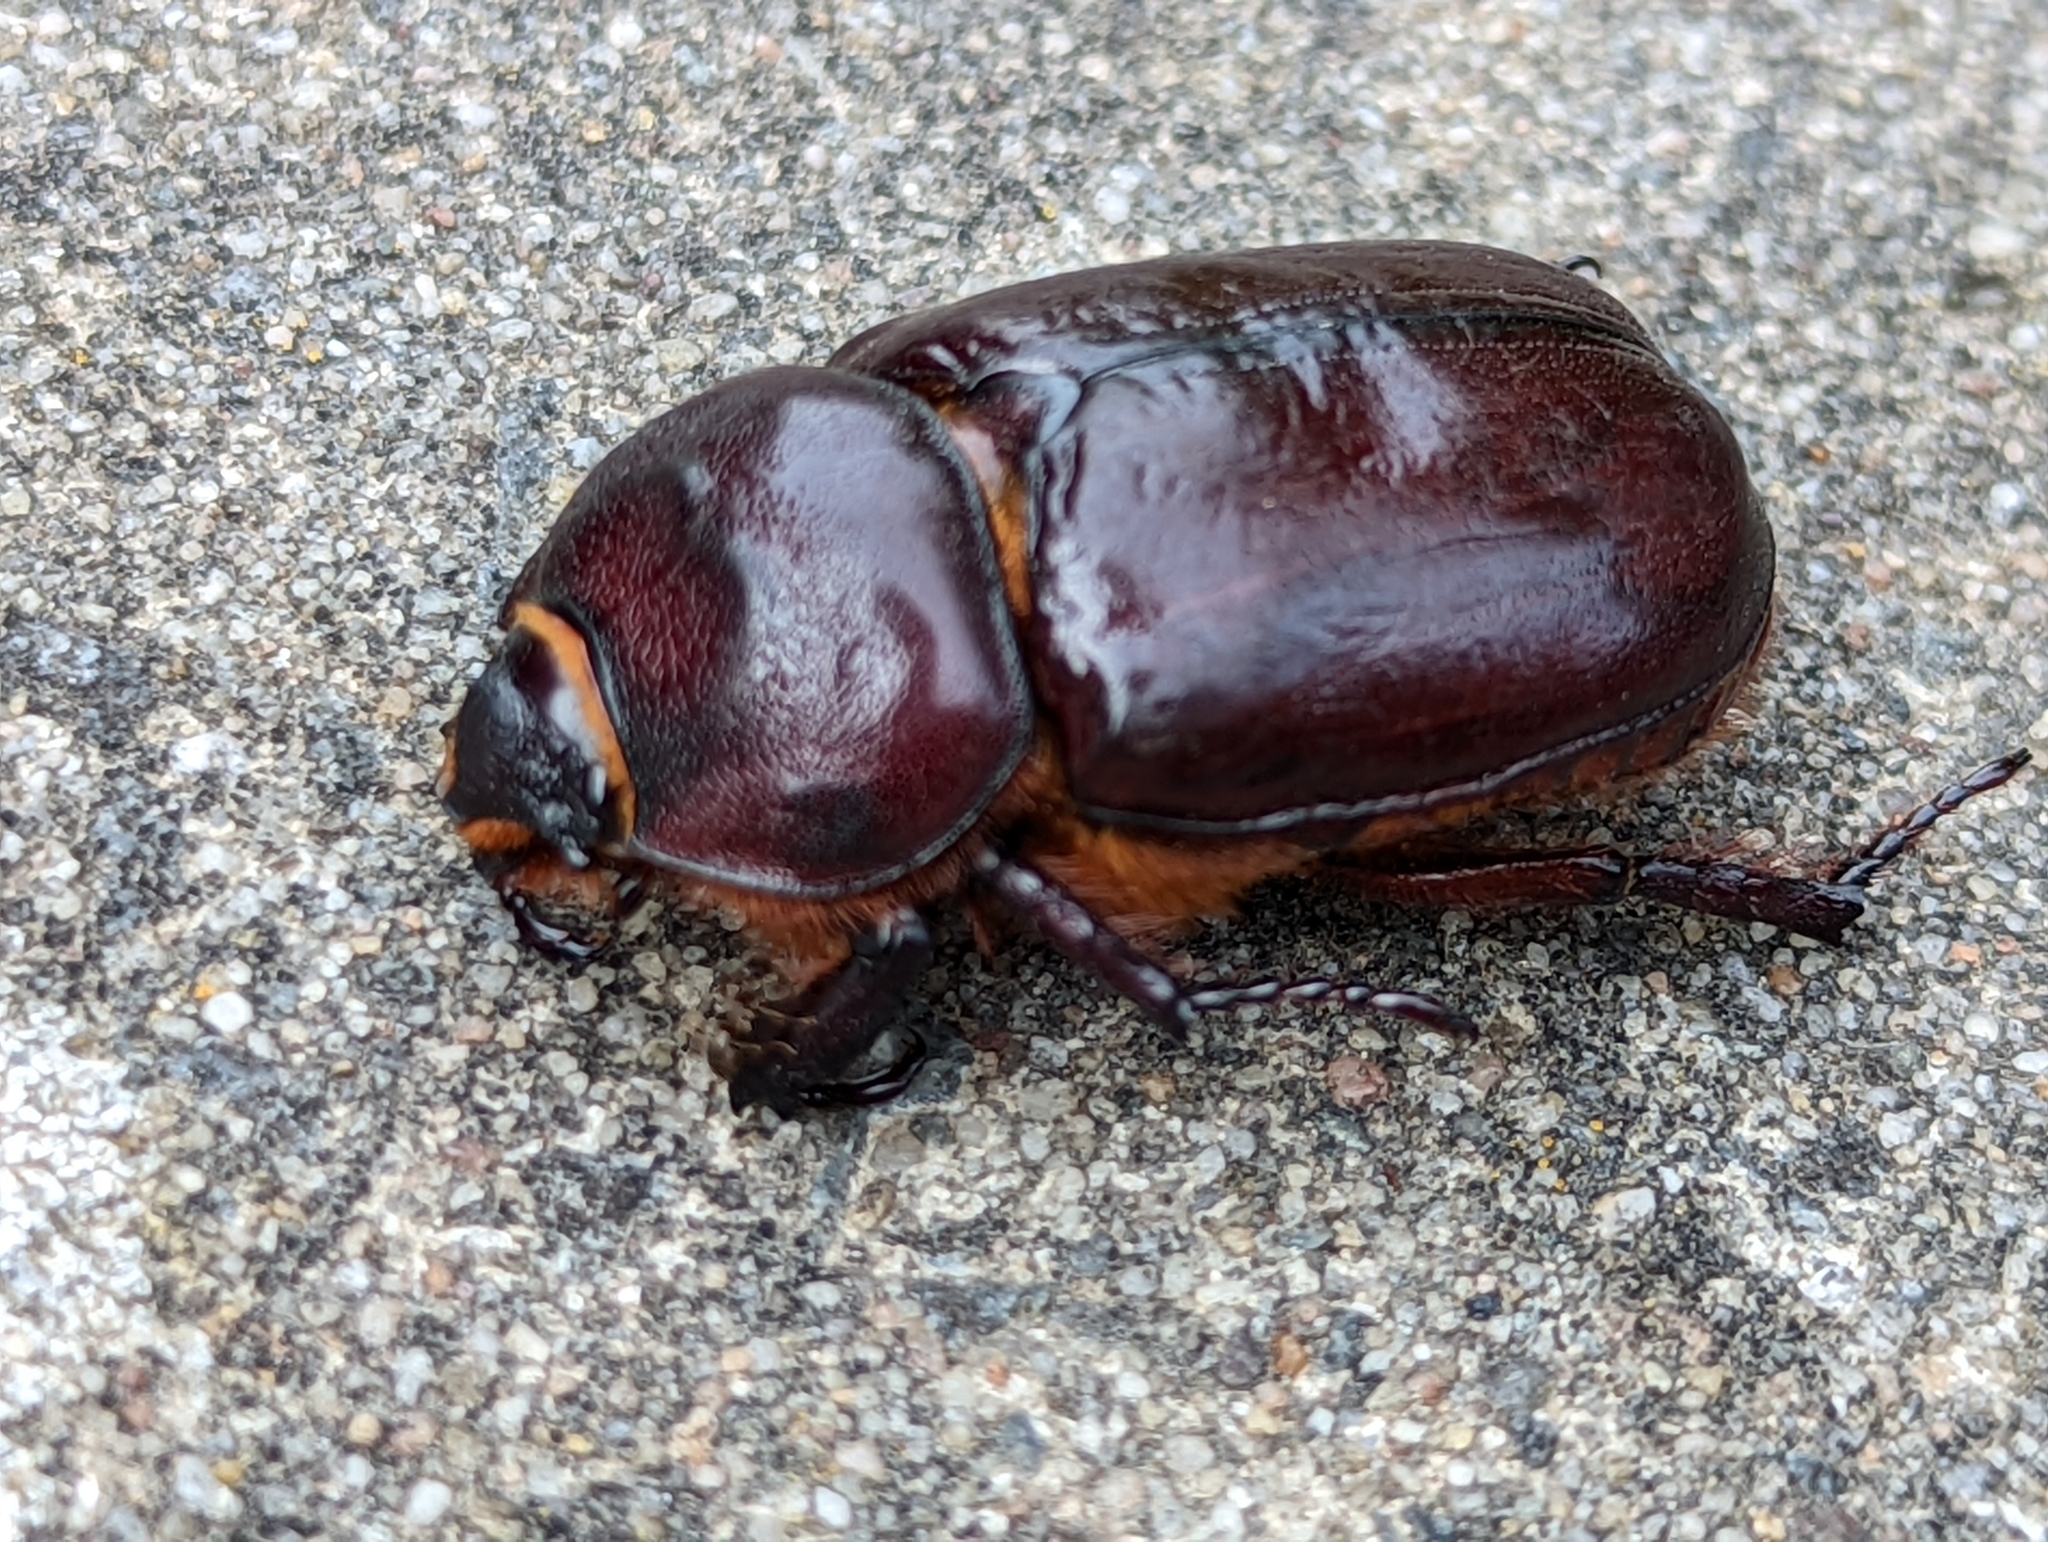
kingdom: Animalia
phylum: Arthropoda
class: Insecta
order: Coleoptera
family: Scarabaeidae
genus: Oryctes
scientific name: Oryctes nasicornis
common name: European rhinoceros beetle
